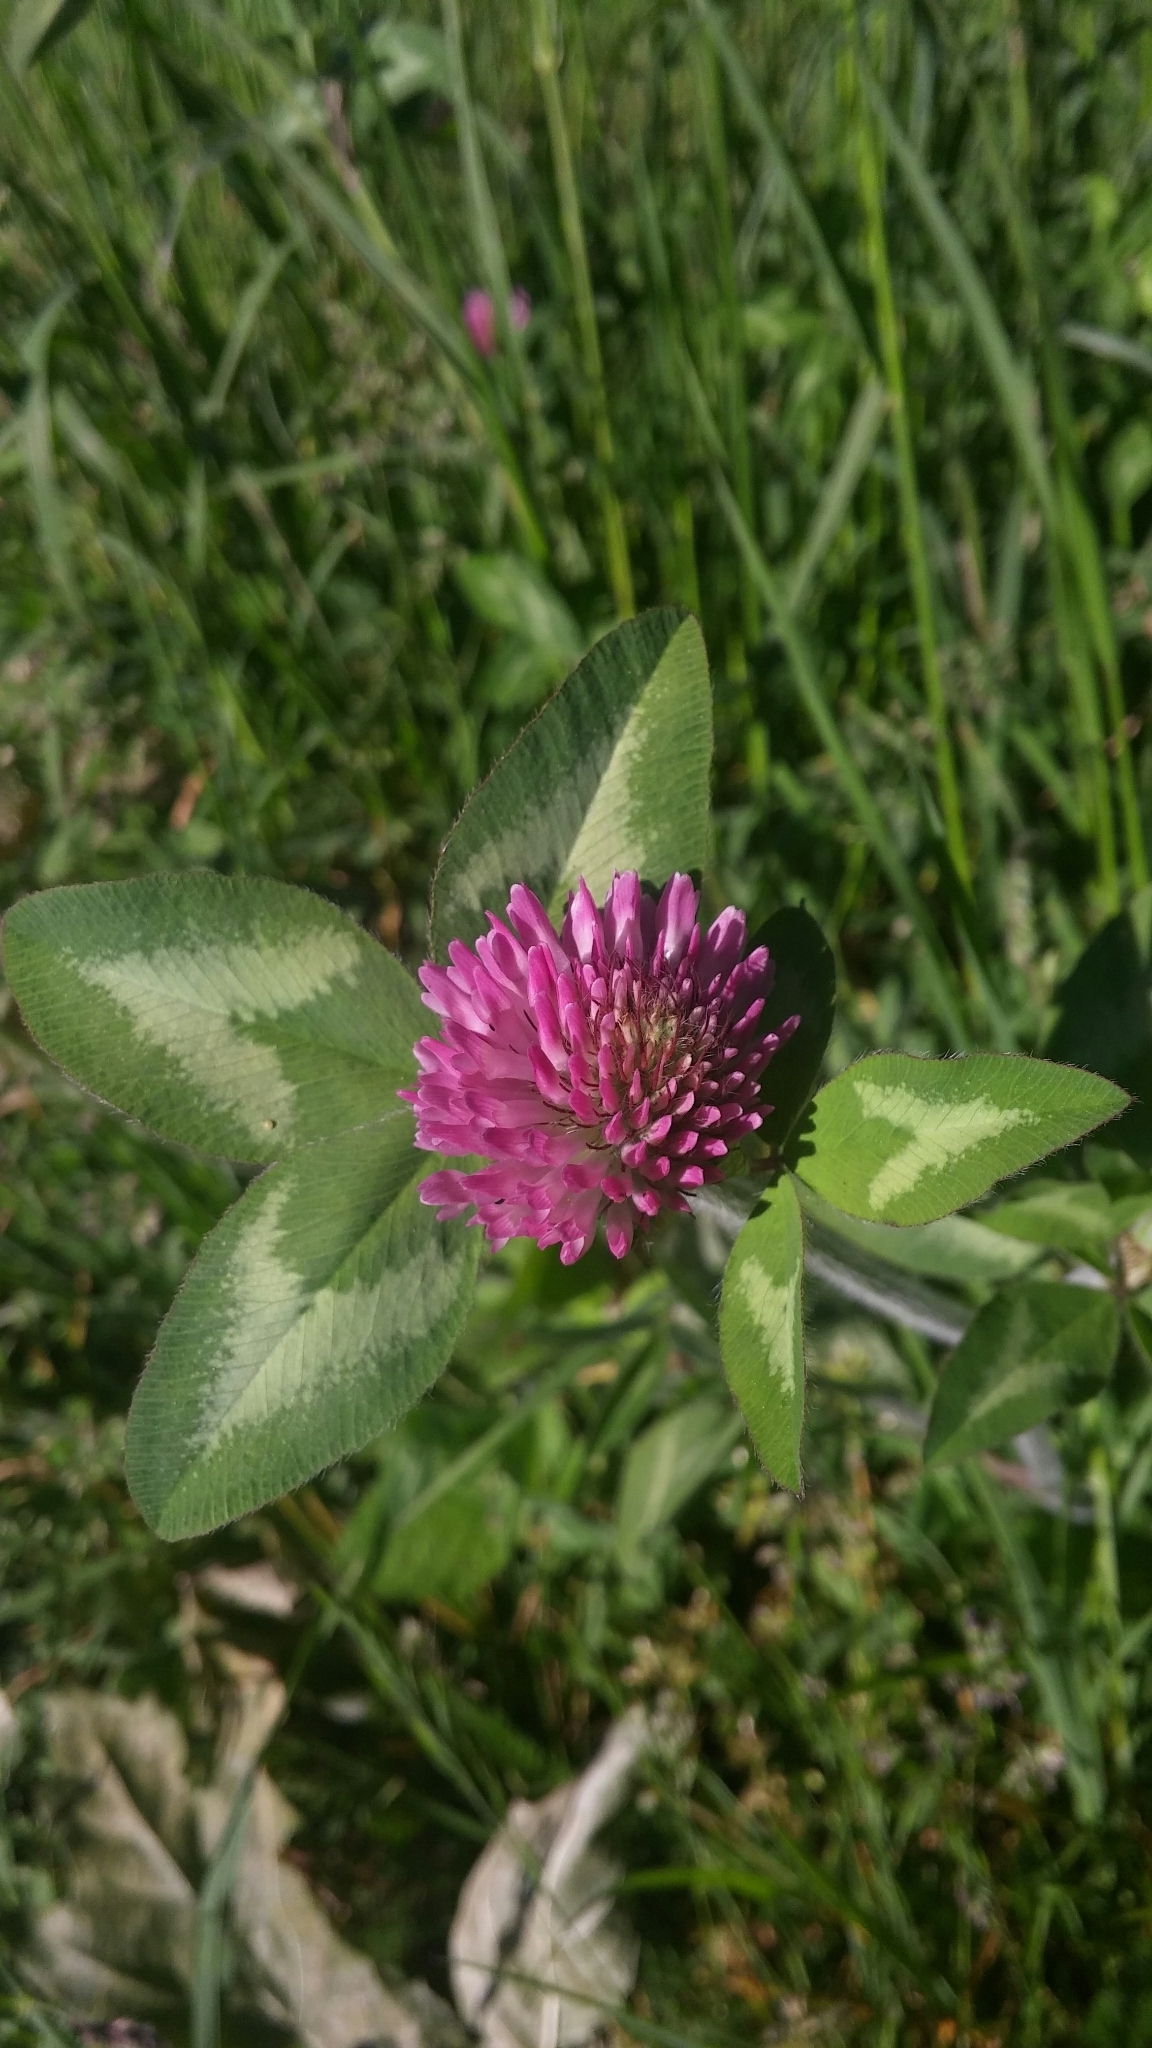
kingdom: Plantae
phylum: Tracheophyta
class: Magnoliopsida
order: Fabales
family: Fabaceae
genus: Trifolium
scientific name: Trifolium pratense
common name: Red clover
